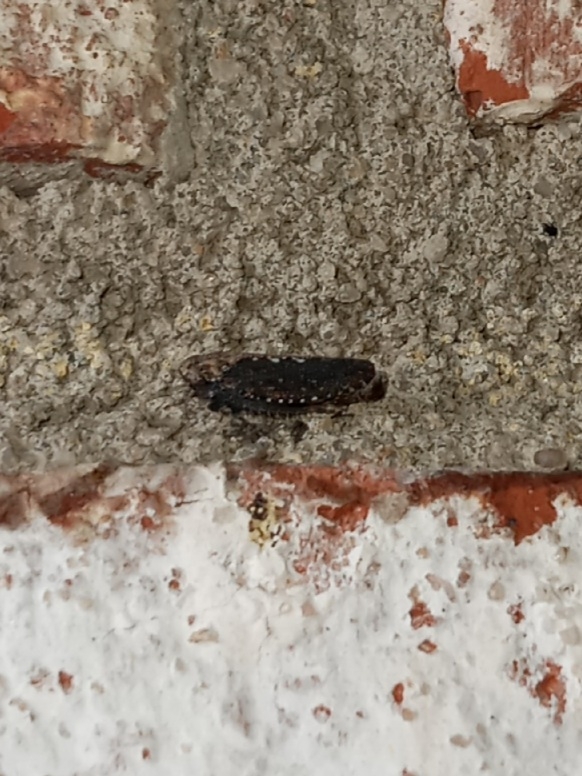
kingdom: Animalia
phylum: Arthropoda
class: Insecta
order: Hemiptera
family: Cicadellidae
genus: Excultanus
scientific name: Excultanus excultus
